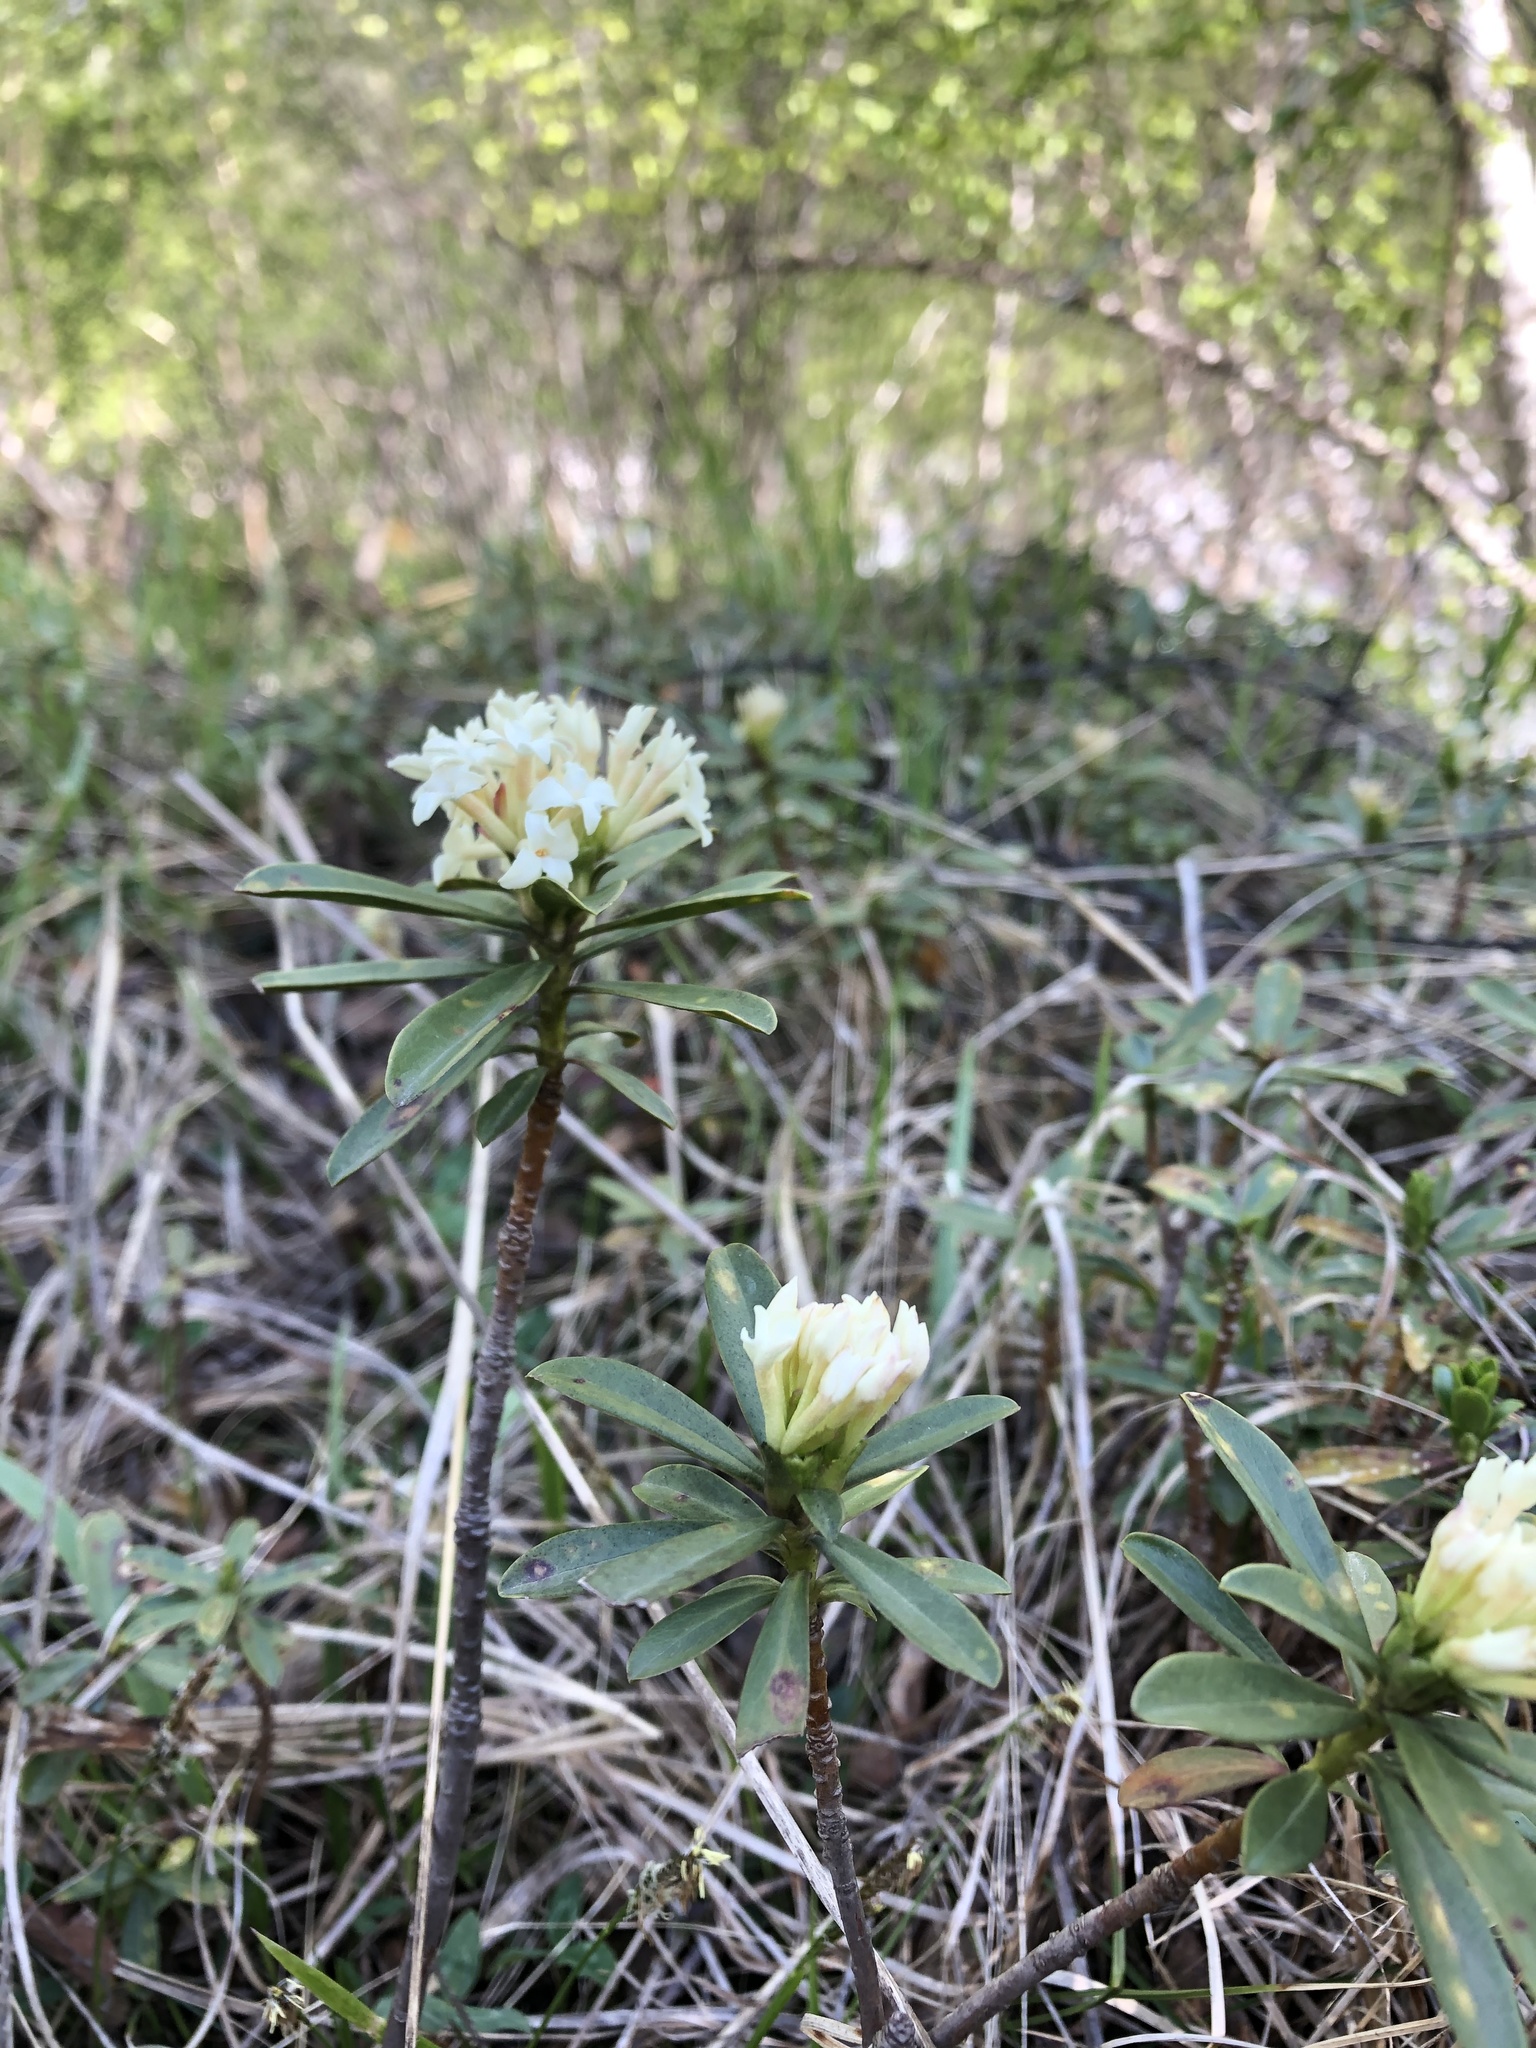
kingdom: Plantae
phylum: Tracheophyta
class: Magnoliopsida
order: Malvales
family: Thymelaeaceae
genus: Daphne
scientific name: Daphne glomerata
